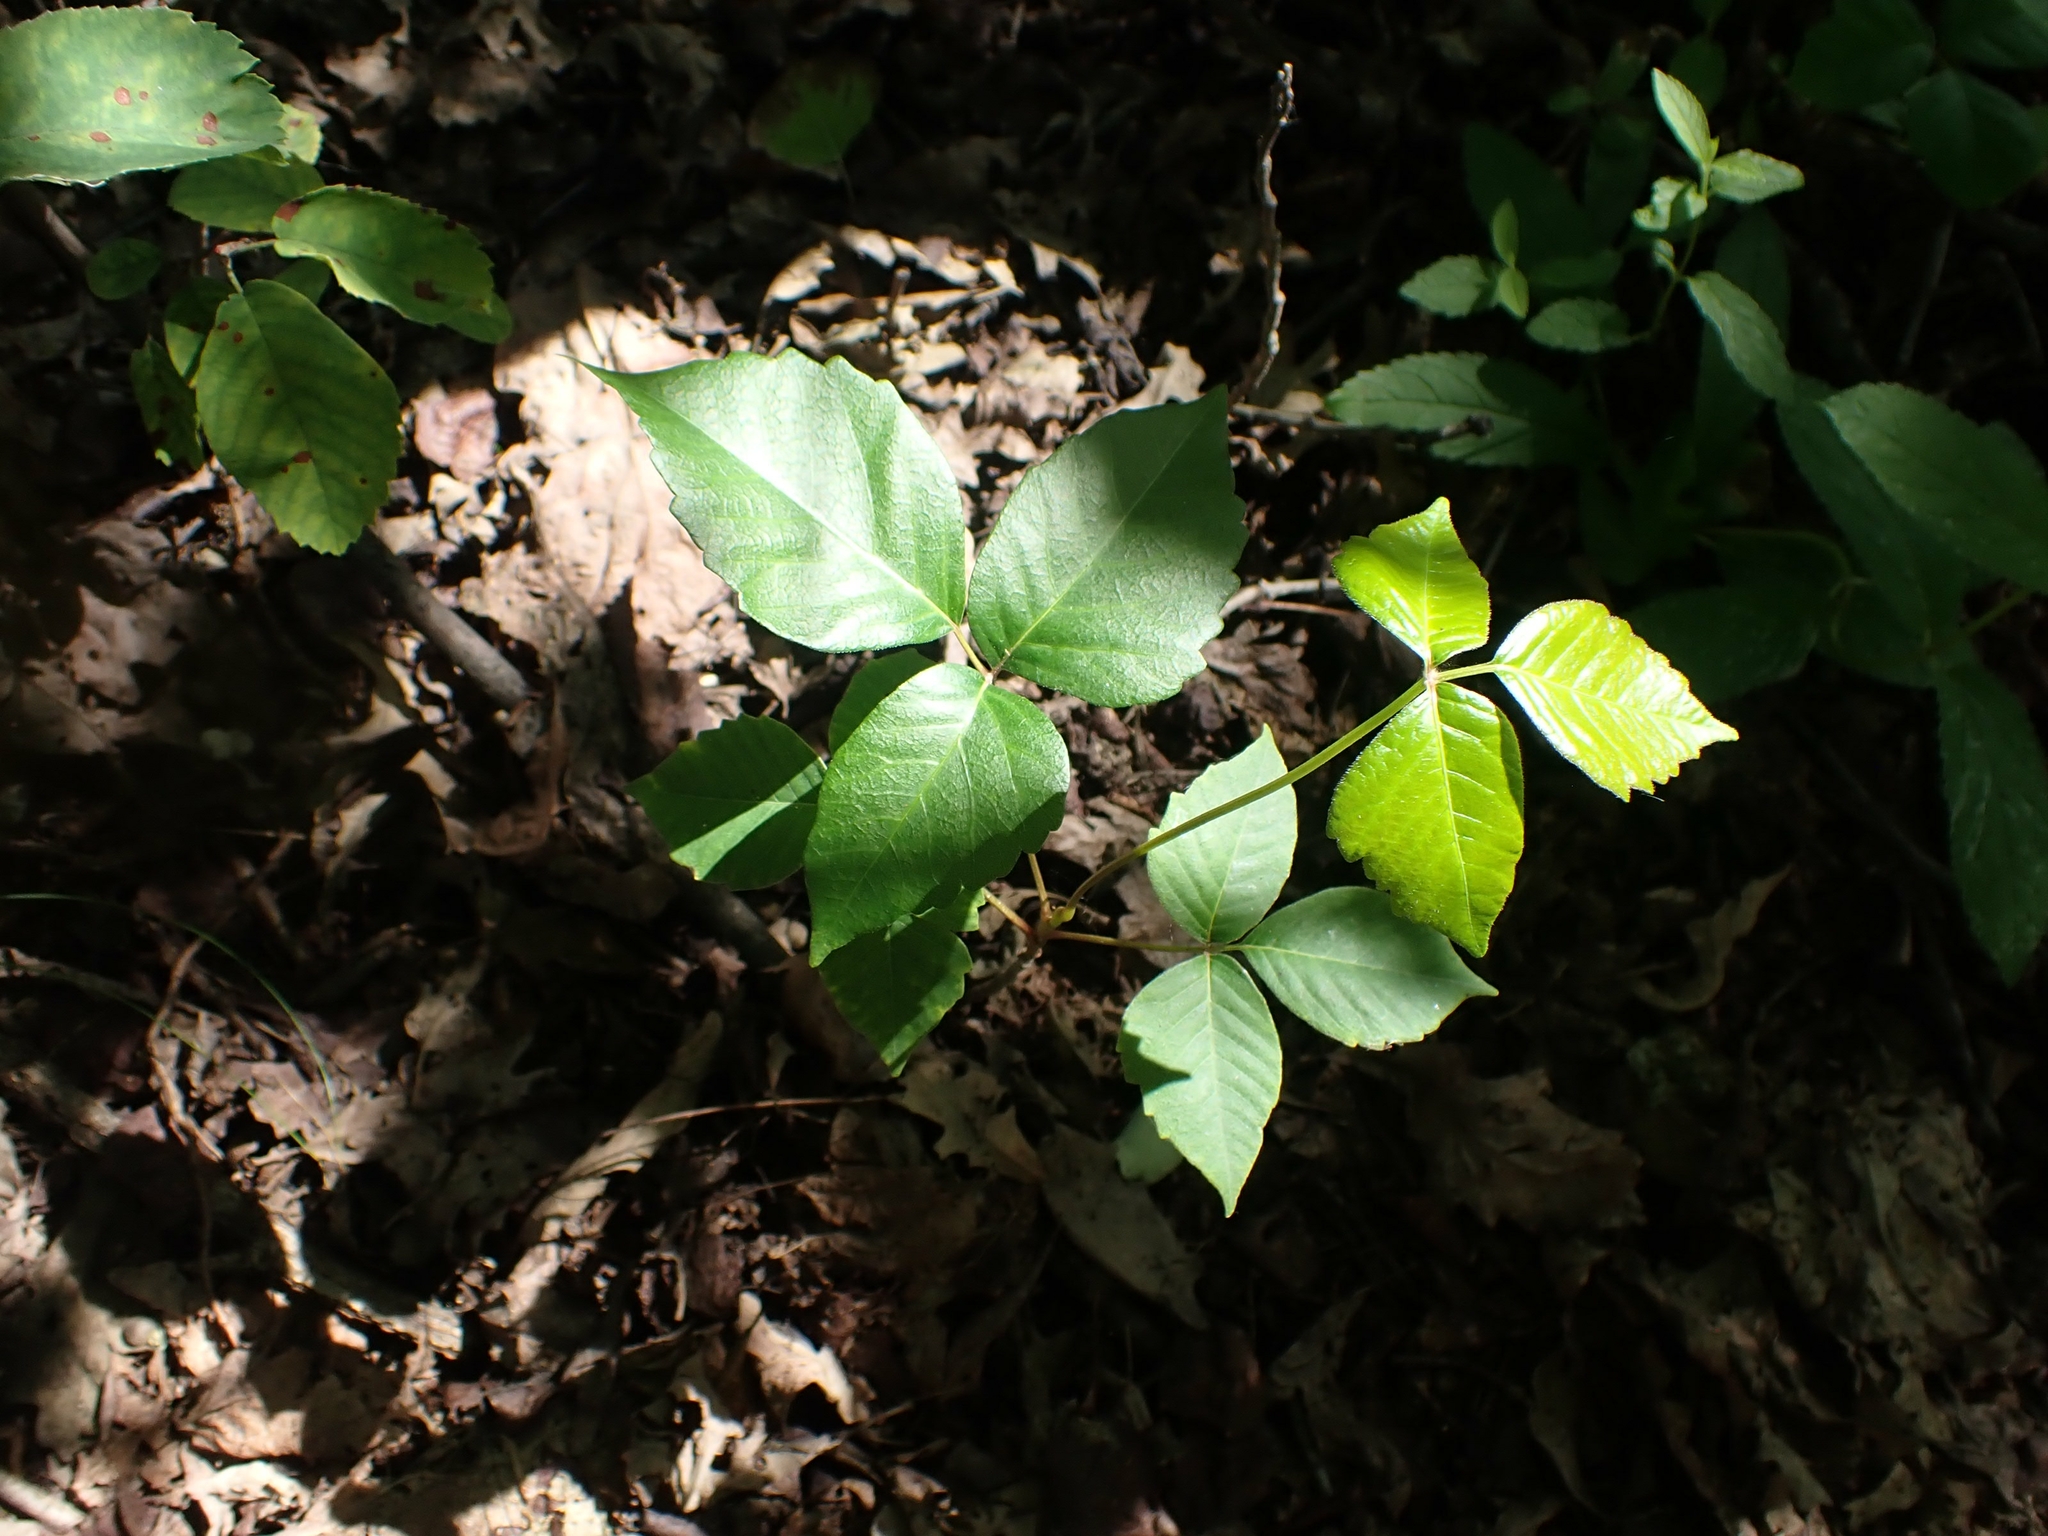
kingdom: Plantae
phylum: Tracheophyta
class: Magnoliopsida
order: Sapindales
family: Anacardiaceae
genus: Toxicodendron
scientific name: Toxicodendron rydbergii
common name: Rydberg's poison-ivy
